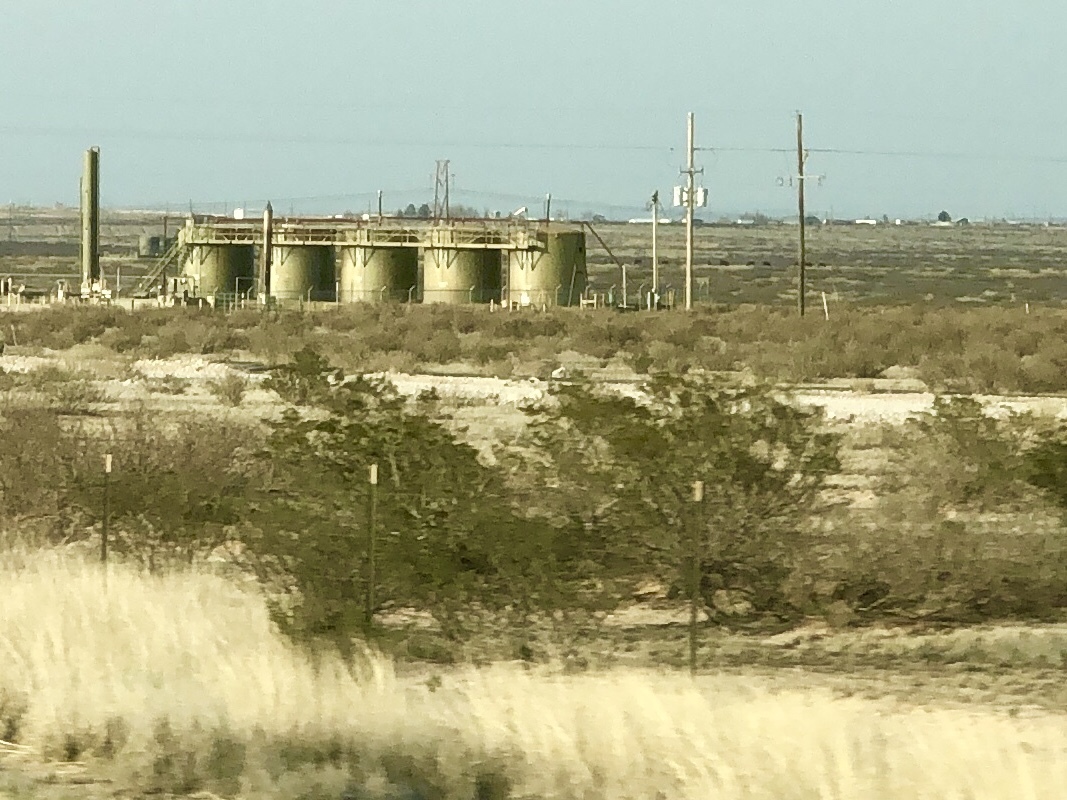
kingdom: Plantae
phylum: Tracheophyta
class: Magnoliopsida
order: Zygophyllales
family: Zygophyllaceae
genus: Larrea
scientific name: Larrea tridentata
